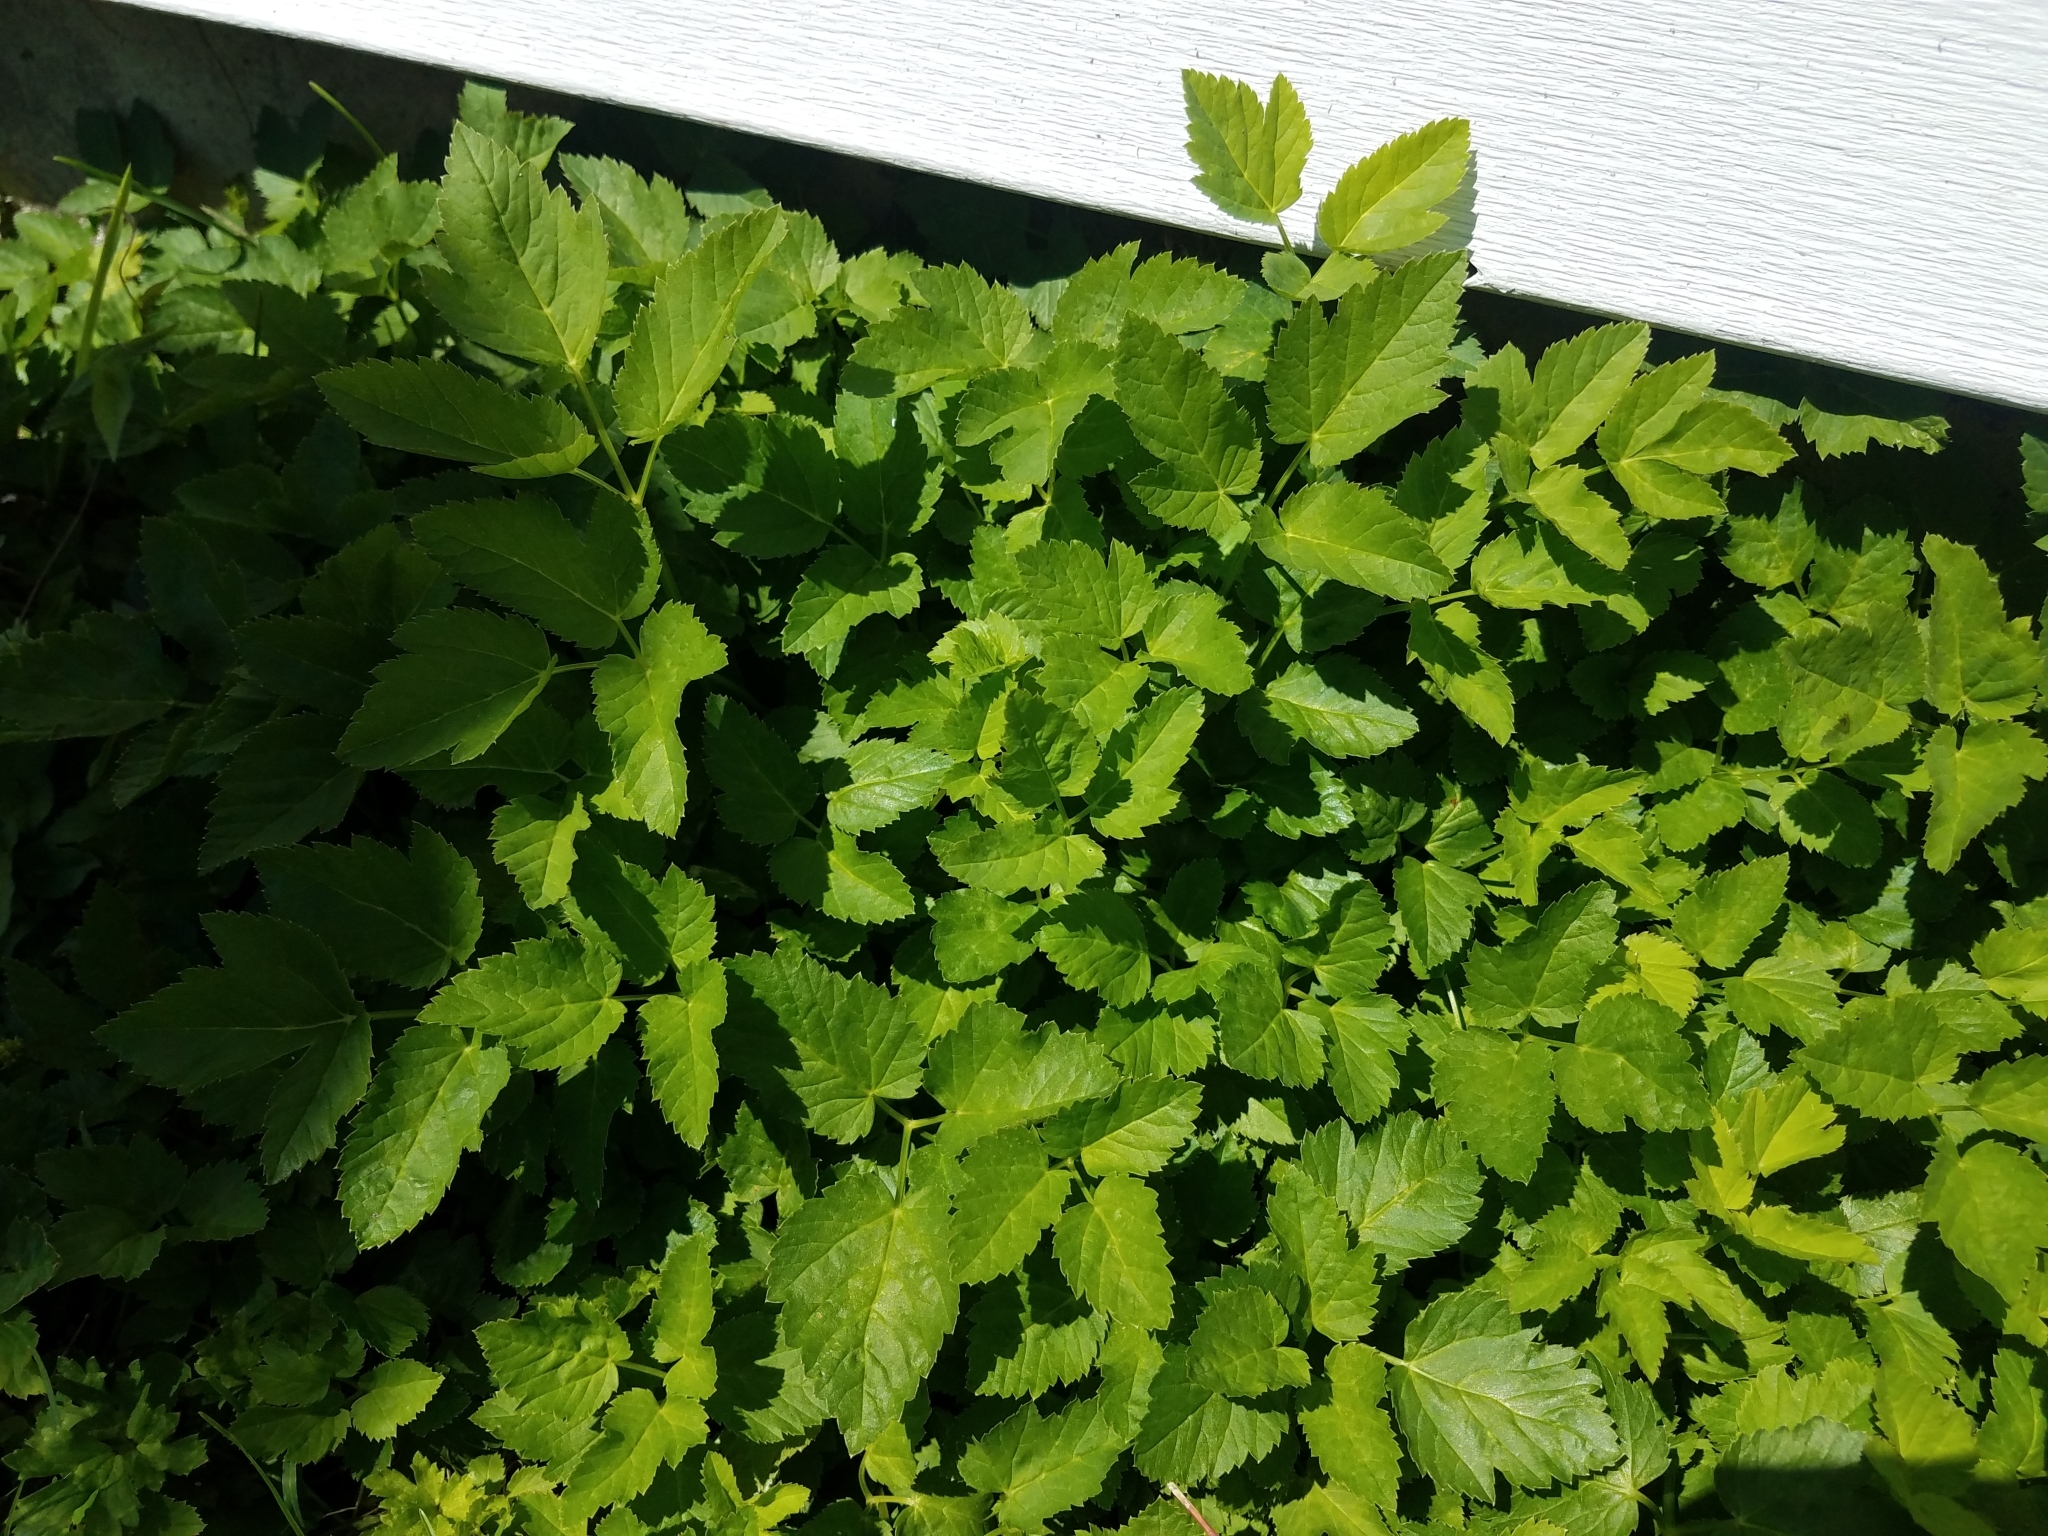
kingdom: Plantae
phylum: Tracheophyta
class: Magnoliopsida
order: Apiales
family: Apiaceae
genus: Aegopodium
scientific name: Aegopodium podagraria
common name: Ground-elder
